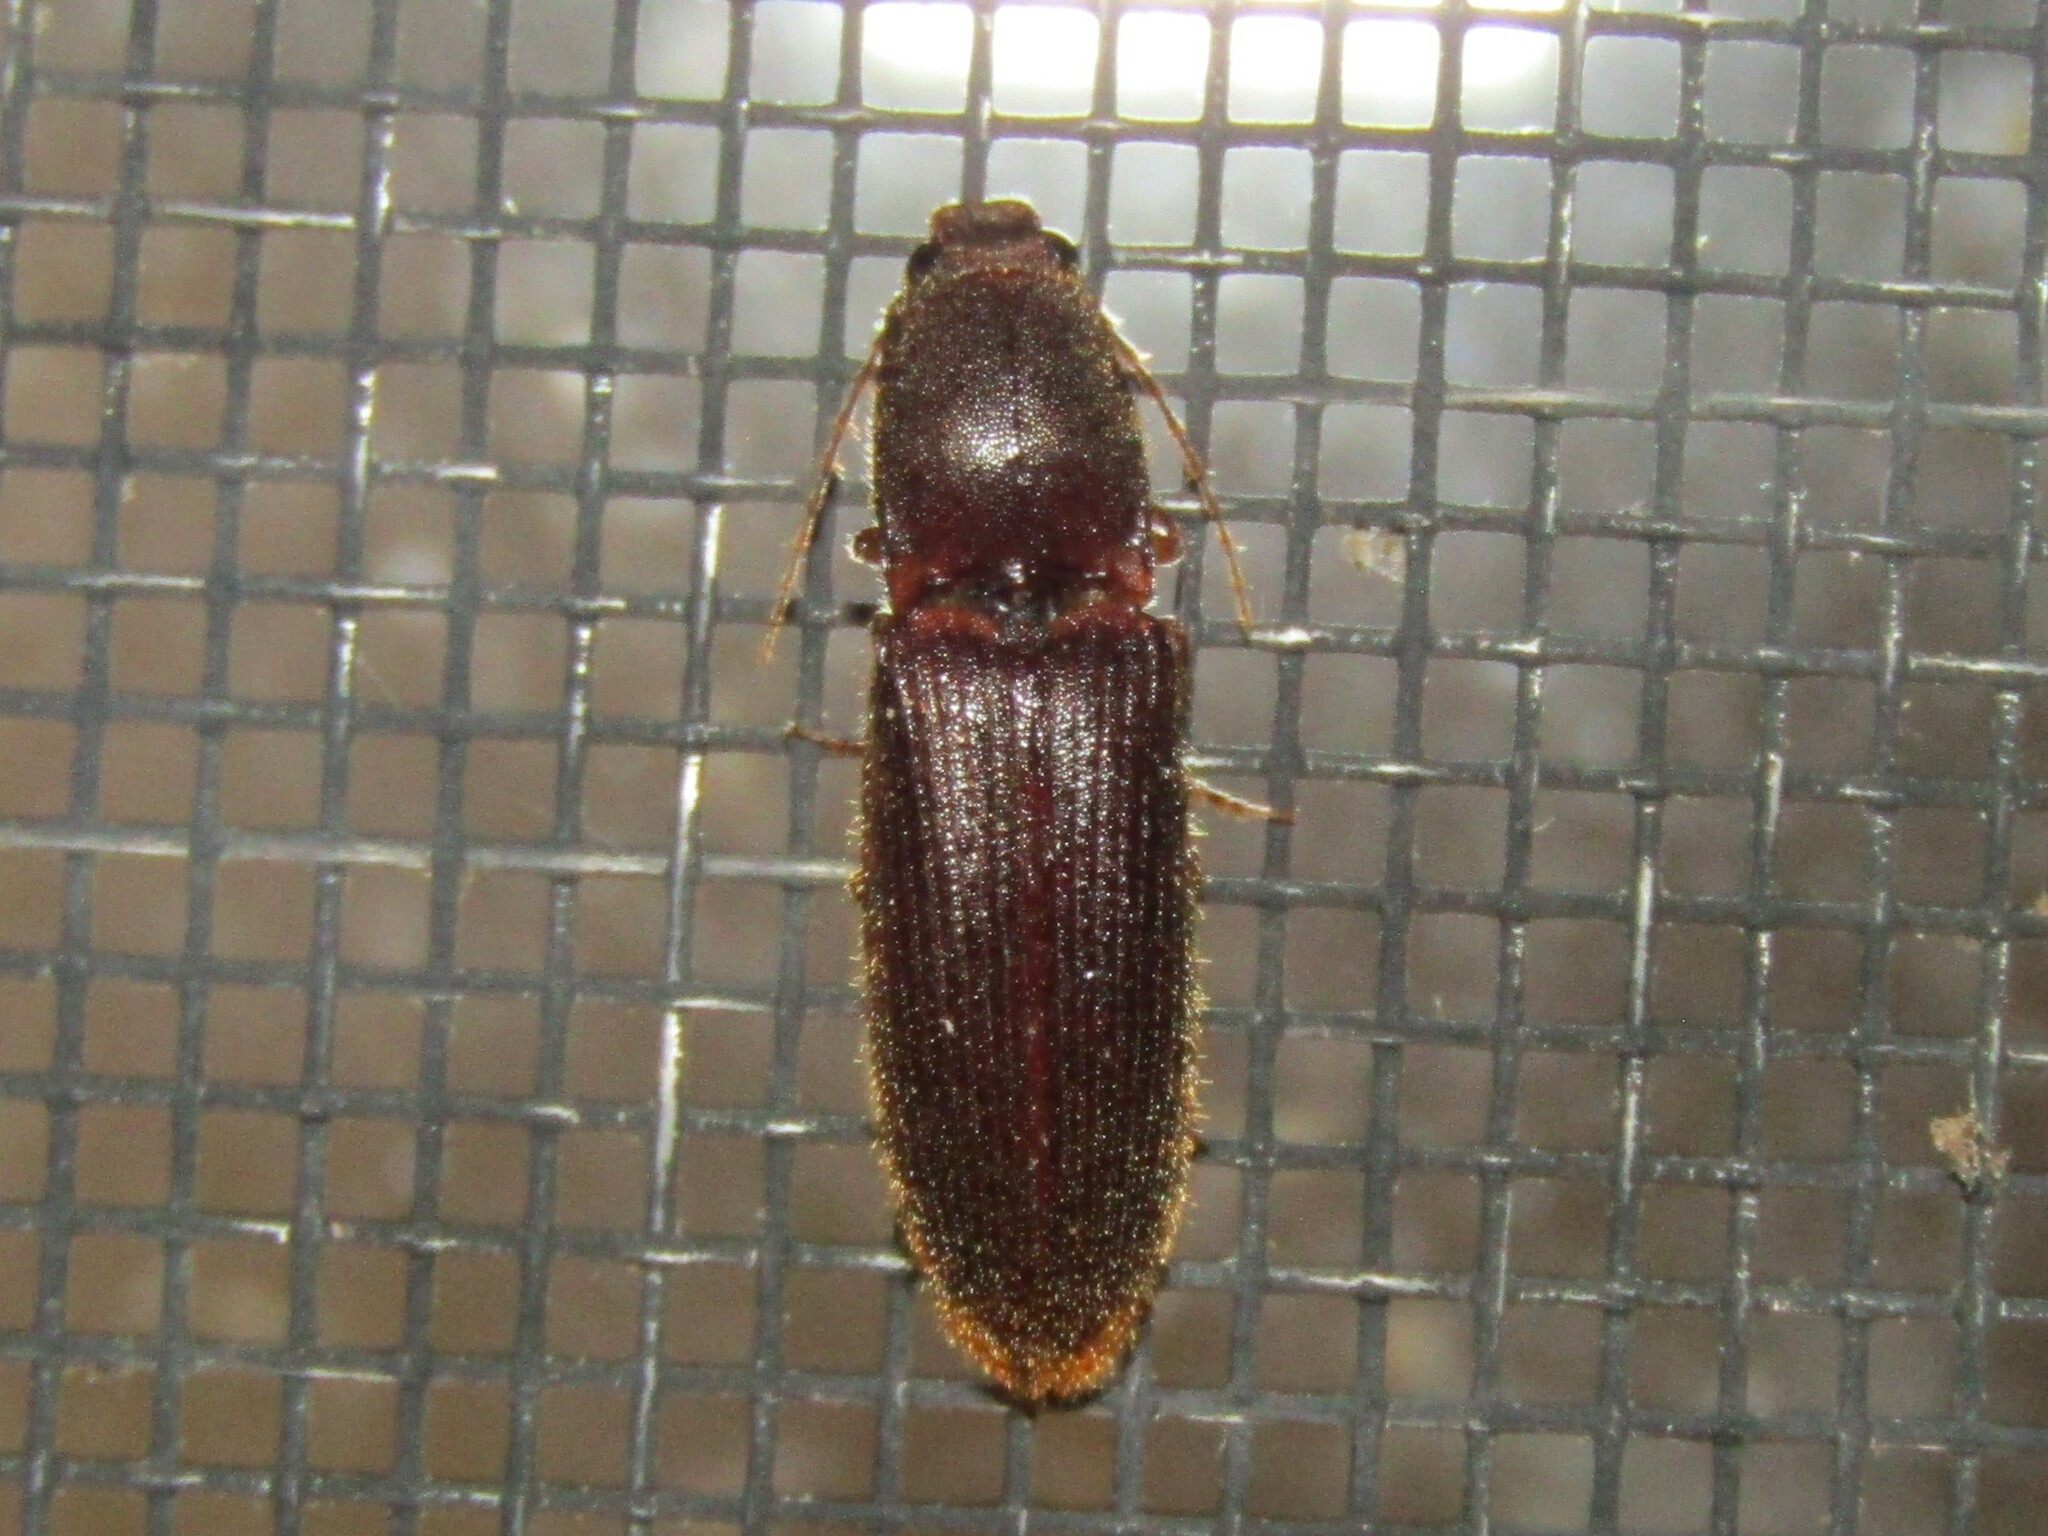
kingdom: Animalia
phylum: Arthropoda
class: Insecta
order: Coleoptera
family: Elateridae
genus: Athous
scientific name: Athous cucullatus
